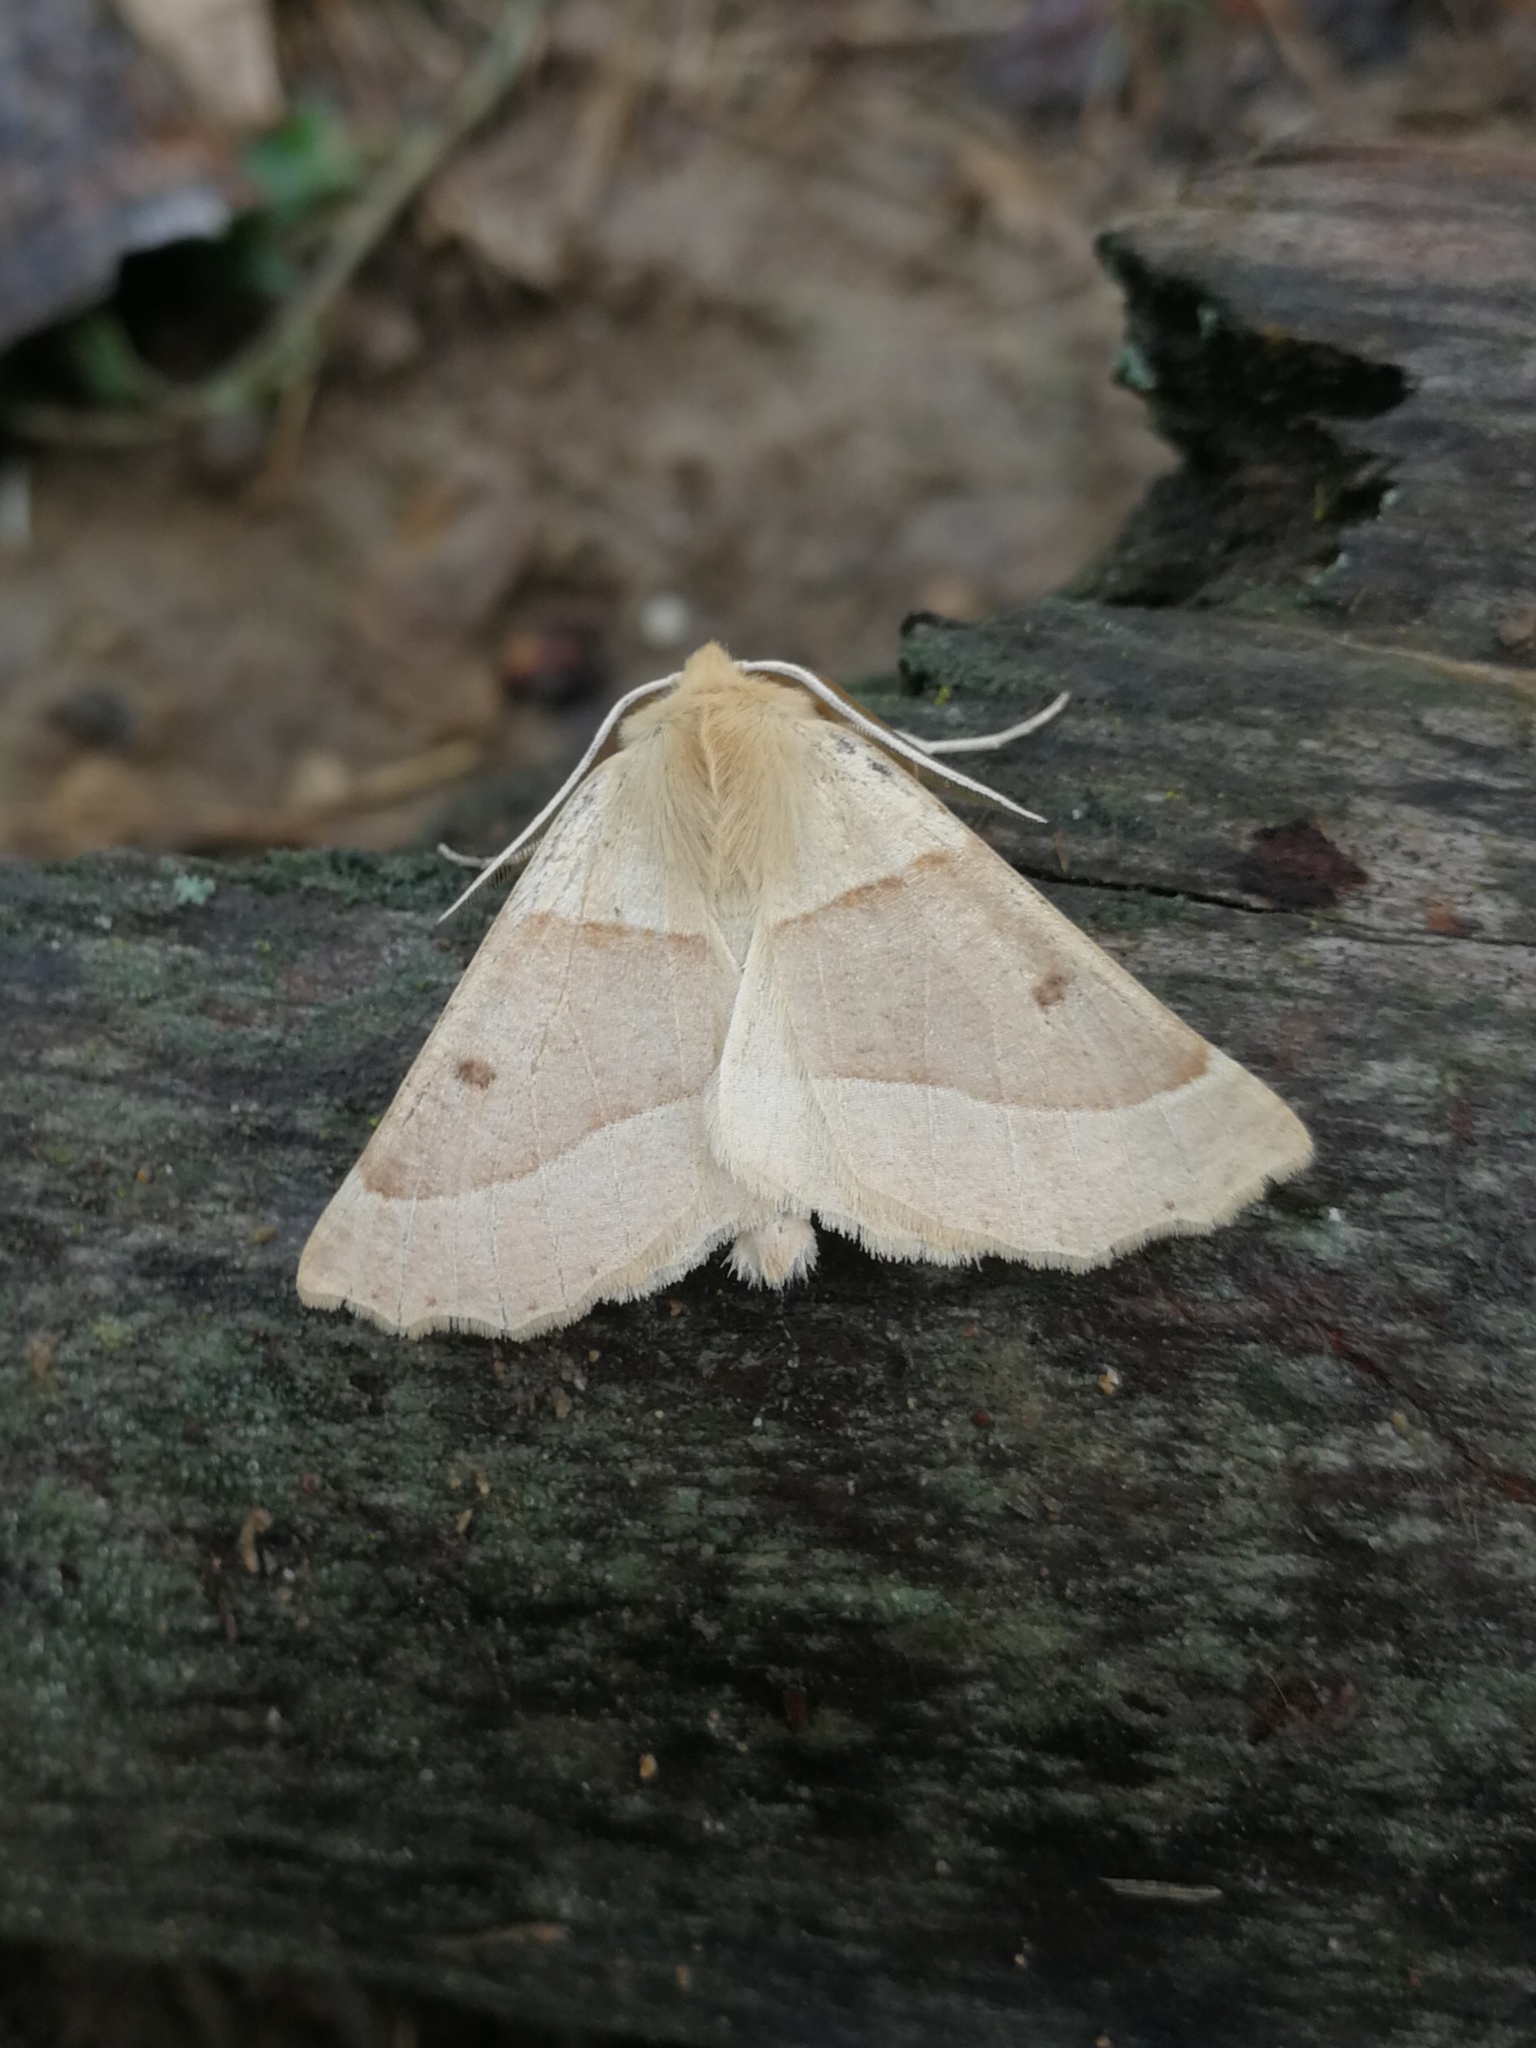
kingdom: Animalia
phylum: Arthropoda
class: Insecta
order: Lepidoptera
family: Geometridae
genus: Crocallis
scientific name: Crocallis elinguaria
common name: Scalloped oak
